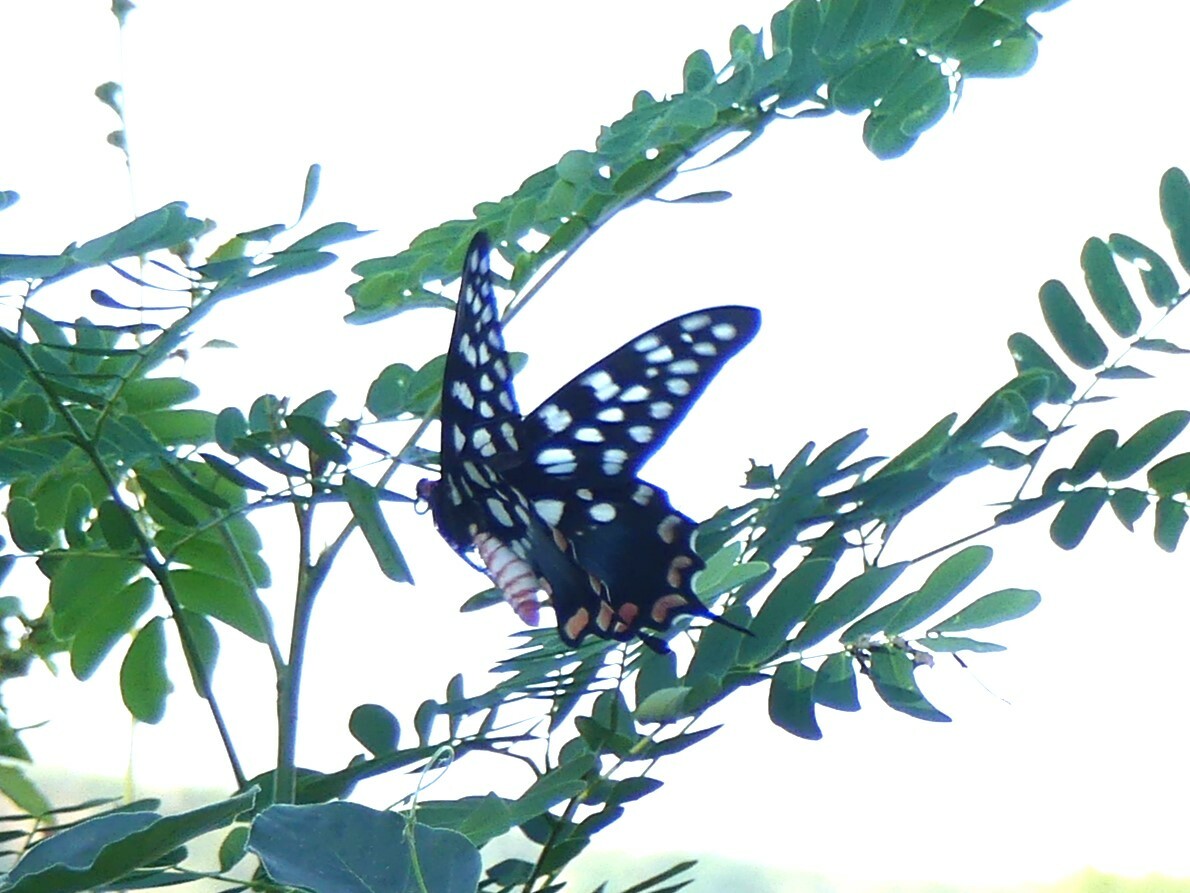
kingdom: Animalia
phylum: Arthropoda
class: Insecta
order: Lepidoptera
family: Papilionidae
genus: Pharmacophagus
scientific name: Pharmacophagus antenor
